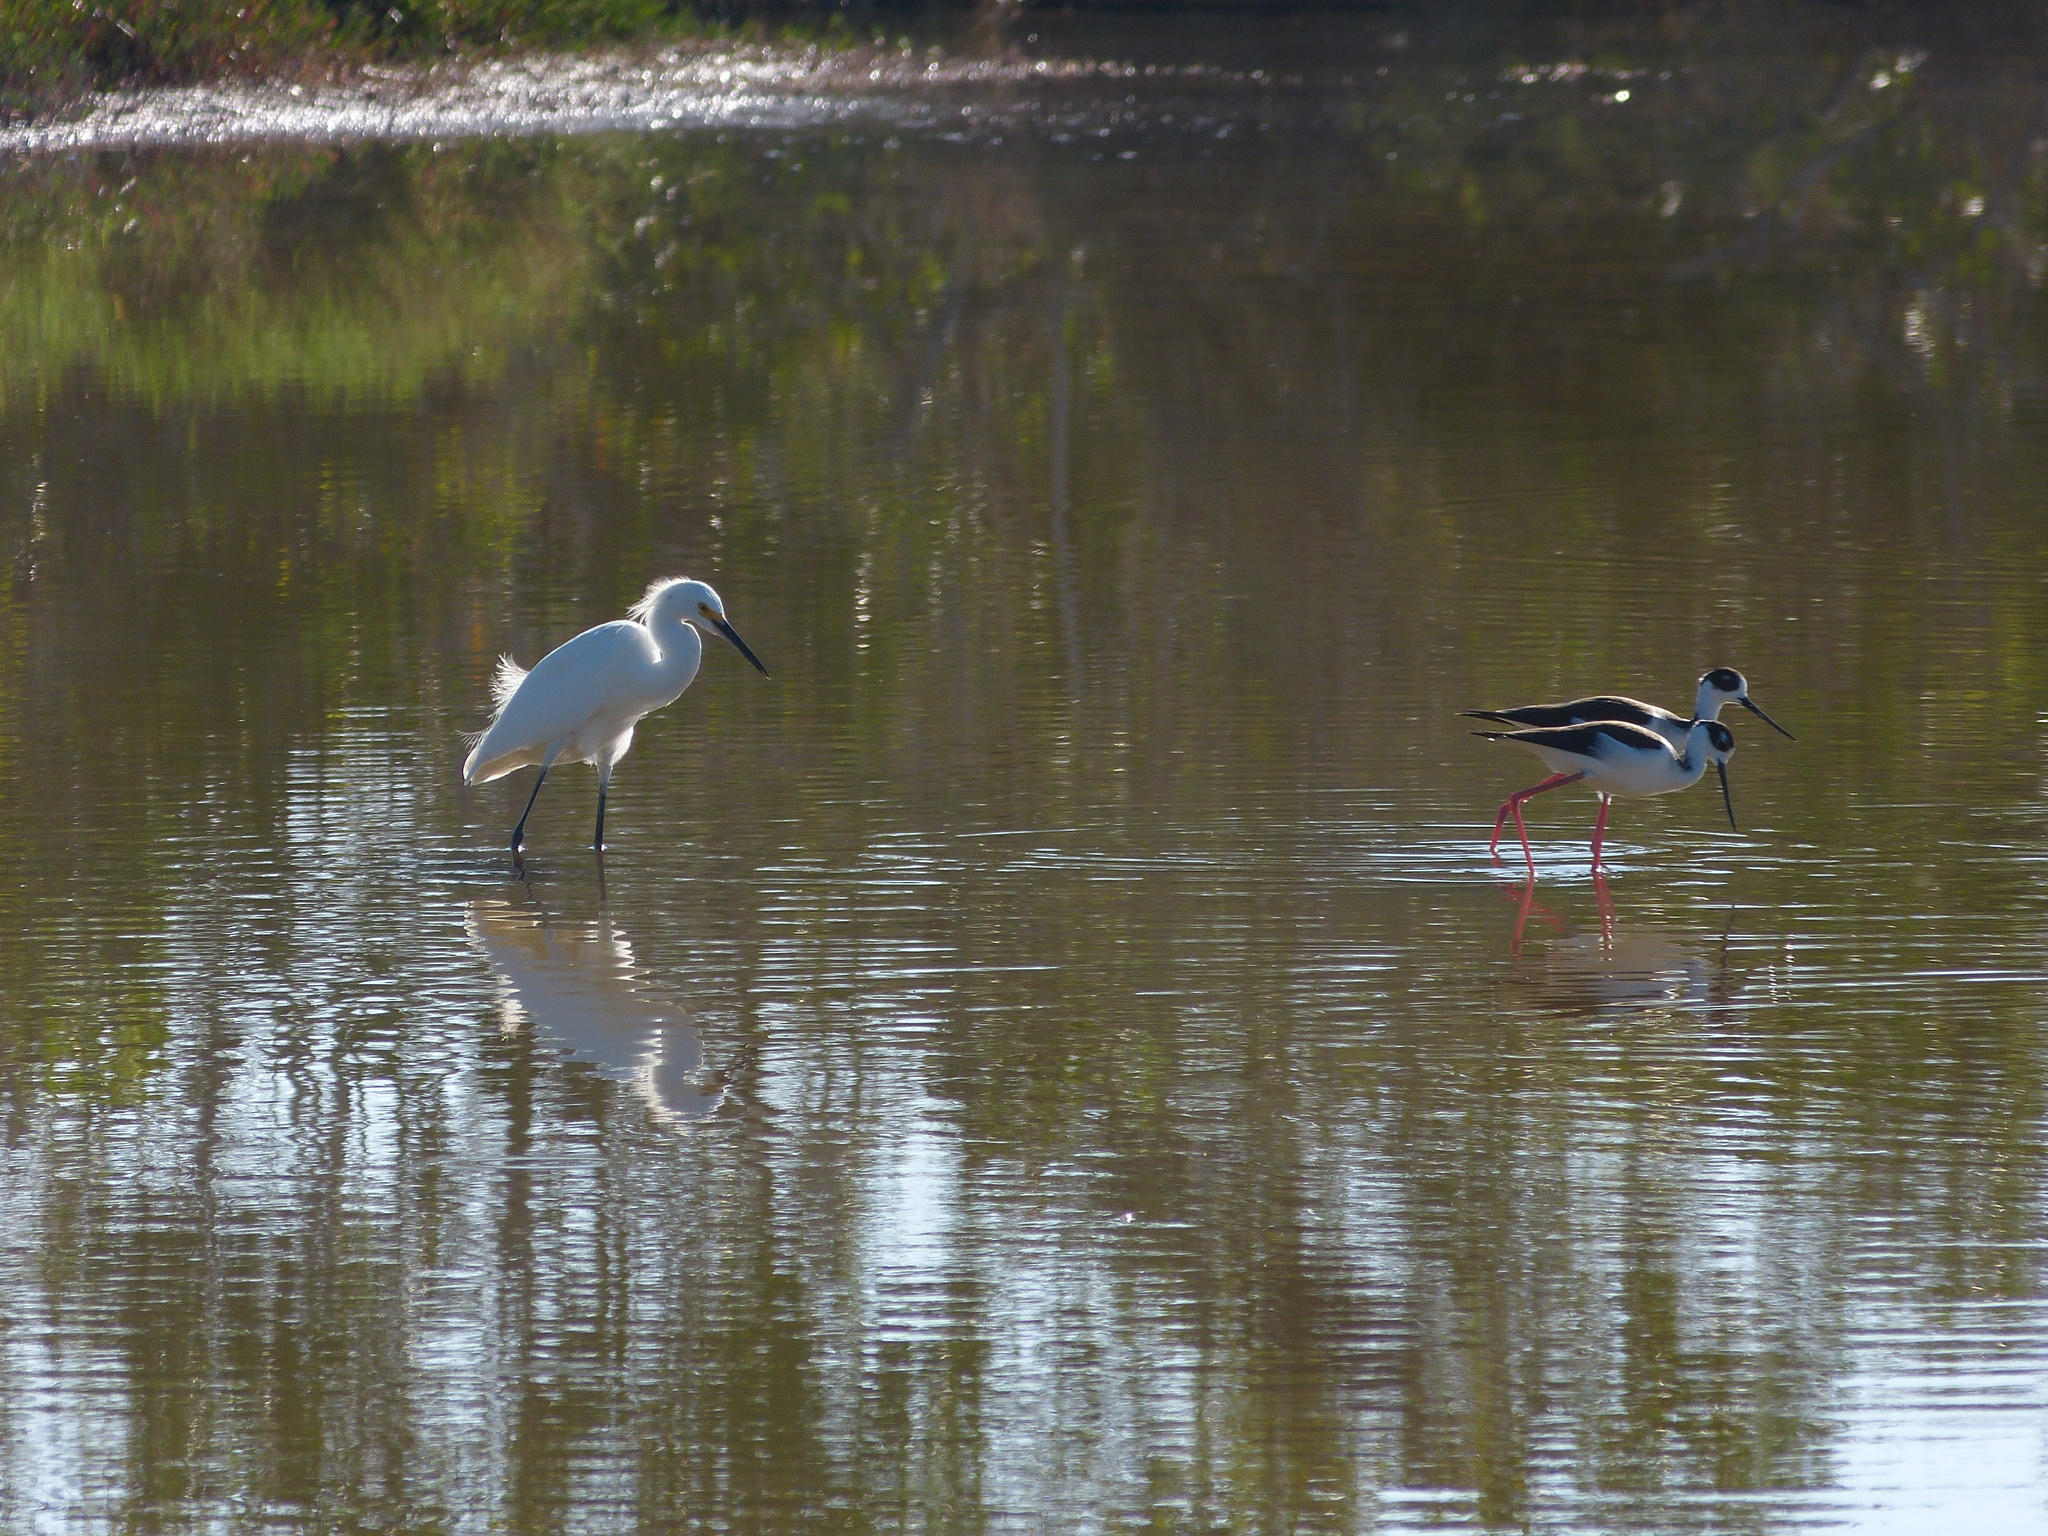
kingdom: Animalia
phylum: Chordata
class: Aves
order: Pelecaniformes
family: Ardeidae
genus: Egretta
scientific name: Egretta thula
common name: Snowy egret
